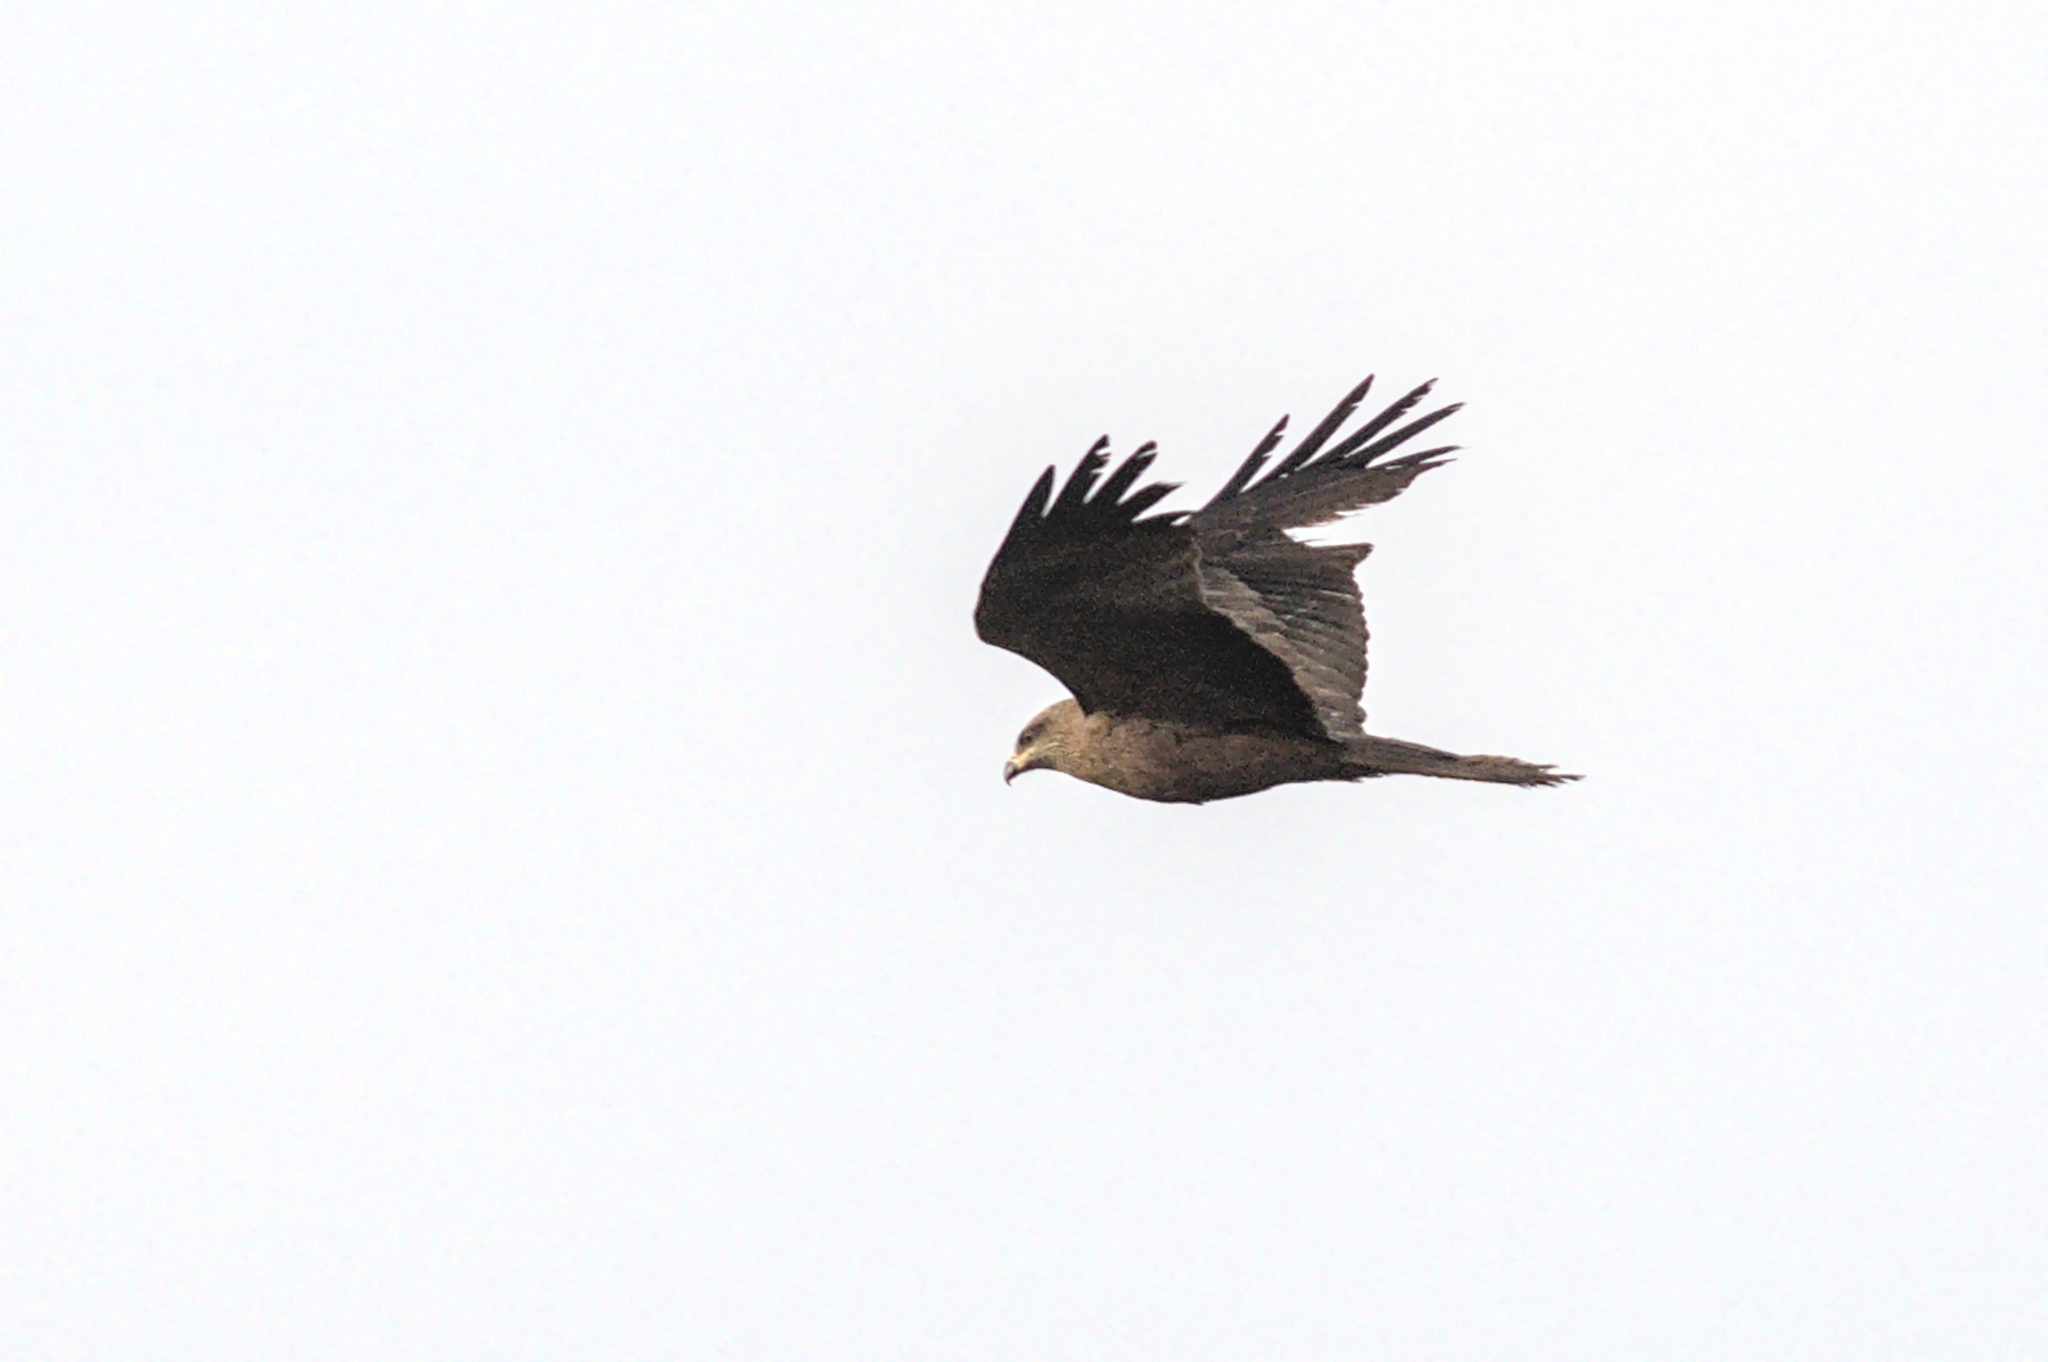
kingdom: Animalia
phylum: Chordata
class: Aves
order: Accipitriformes
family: Accipitridae
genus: Milvus
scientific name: Milvus migrans
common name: Black kite
